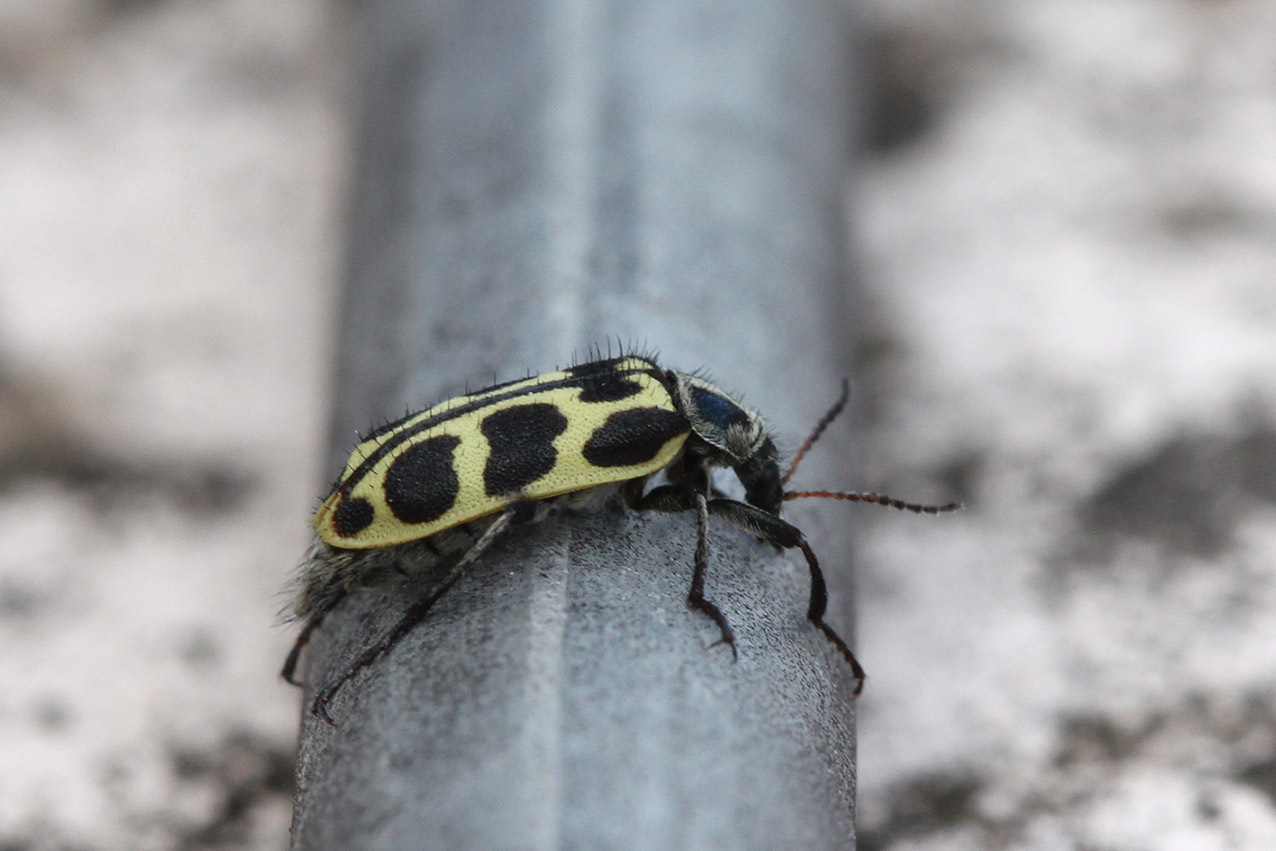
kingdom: Animalia
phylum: Arthropoda
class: Insecta
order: Coleoptera
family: Melyridae
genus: Astylus
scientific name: Astylus atromaculatus
